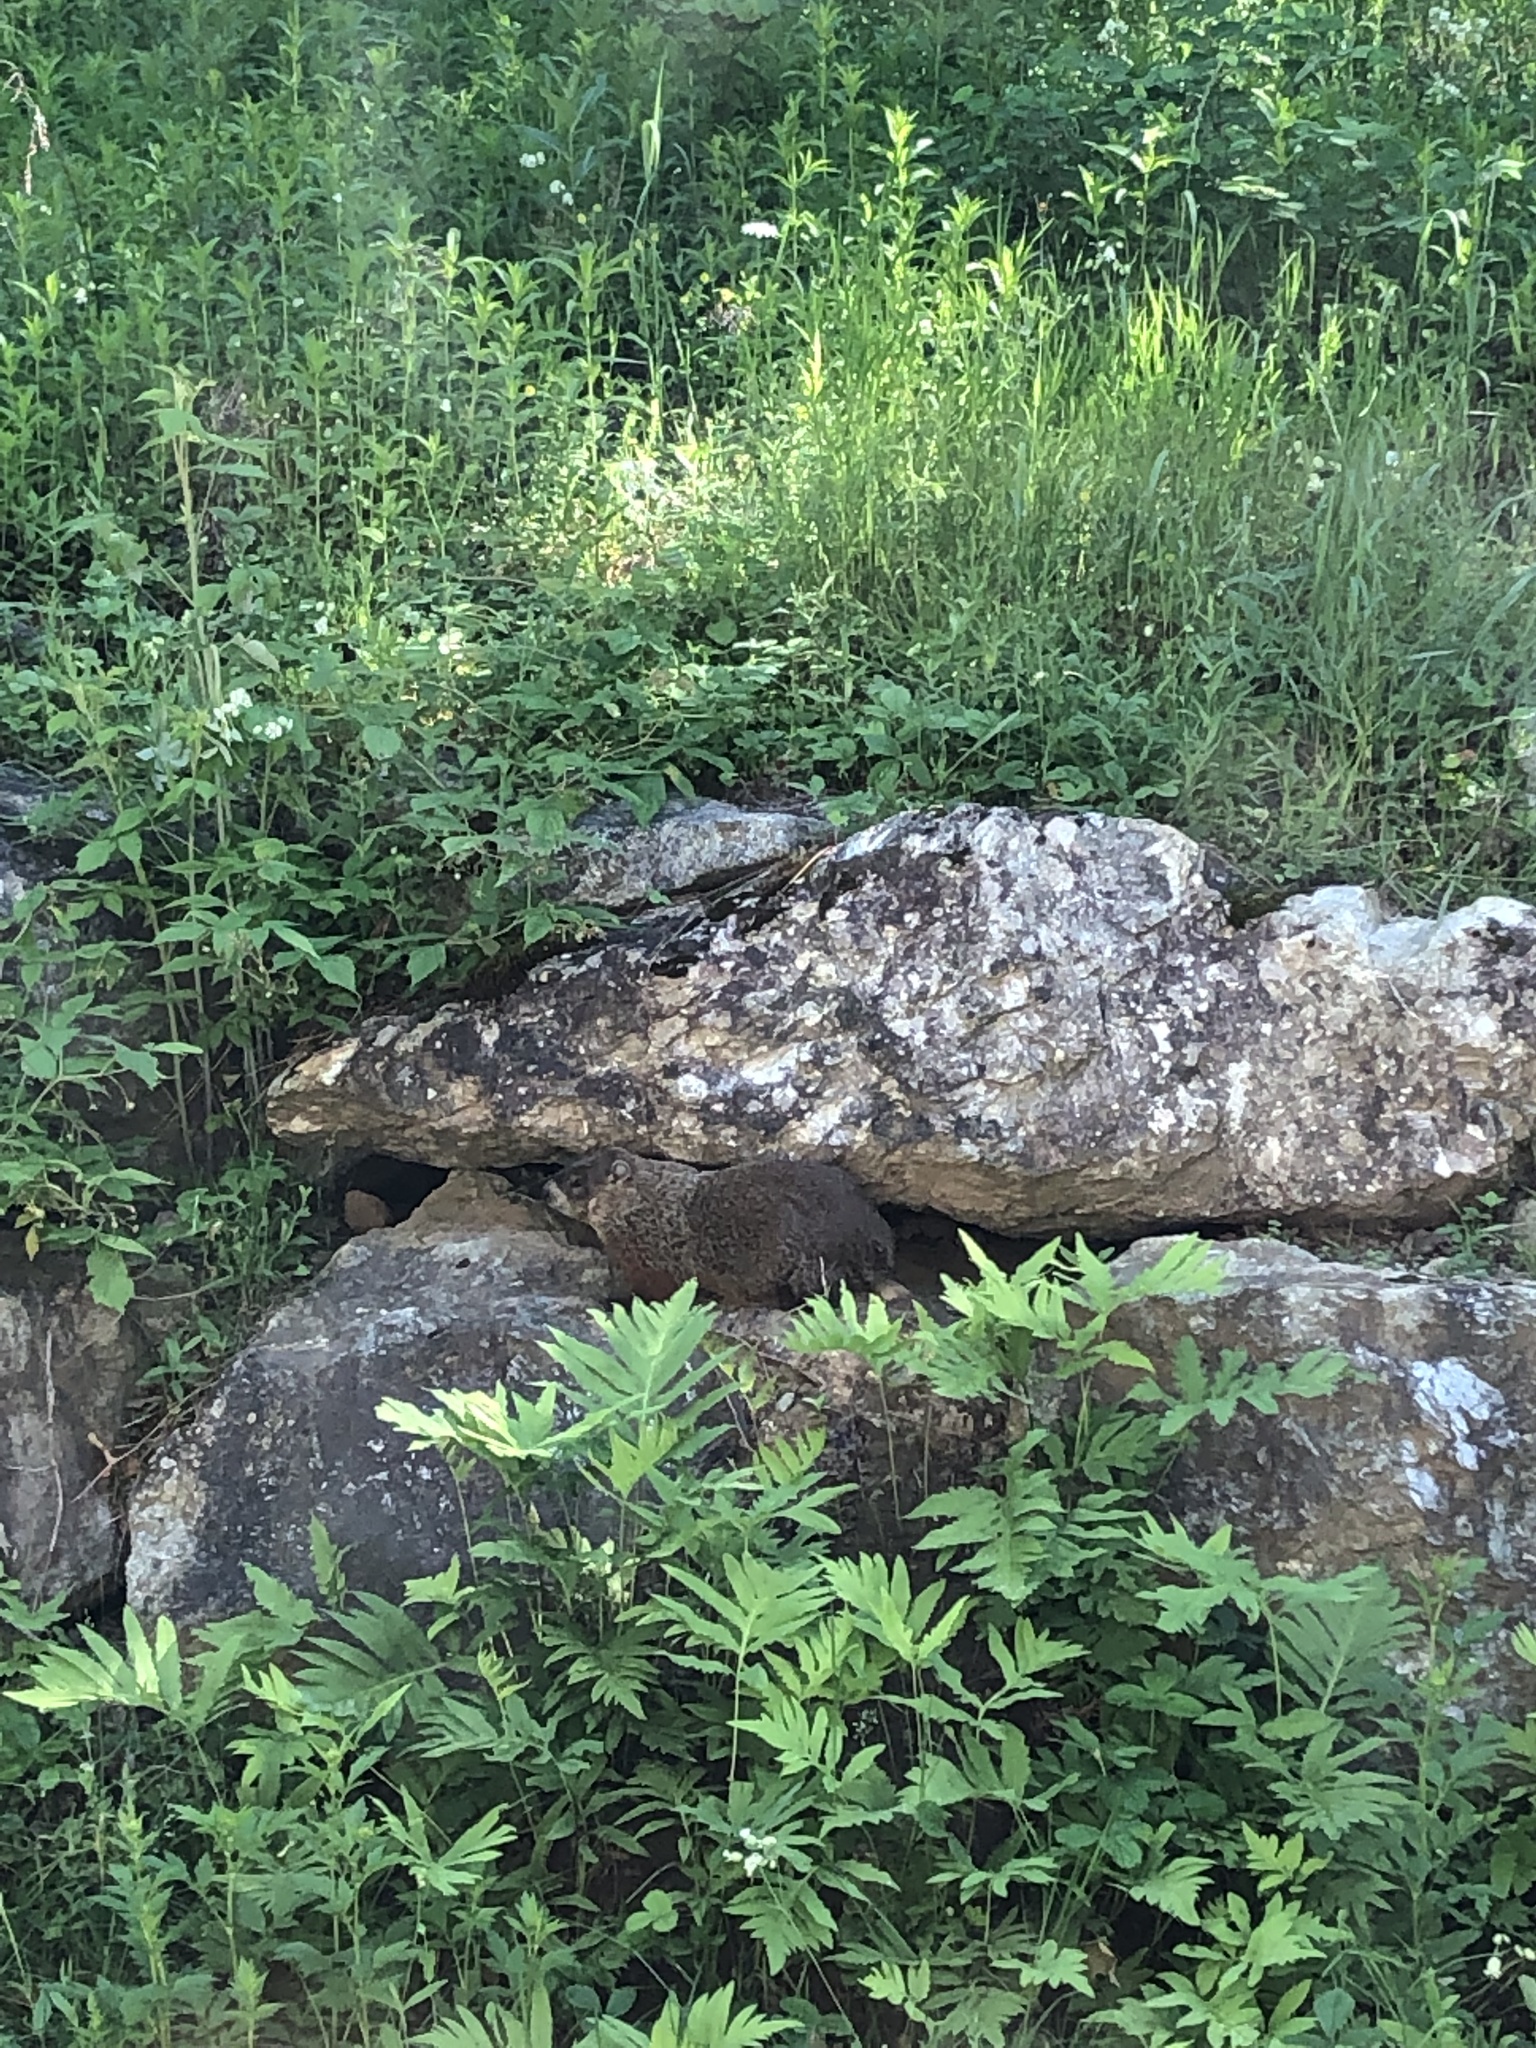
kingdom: Animalia
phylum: Chordata
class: Mammalia
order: Rodentia
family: Sciuridae
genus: Marmota
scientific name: Marmota monax
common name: Groundhog
